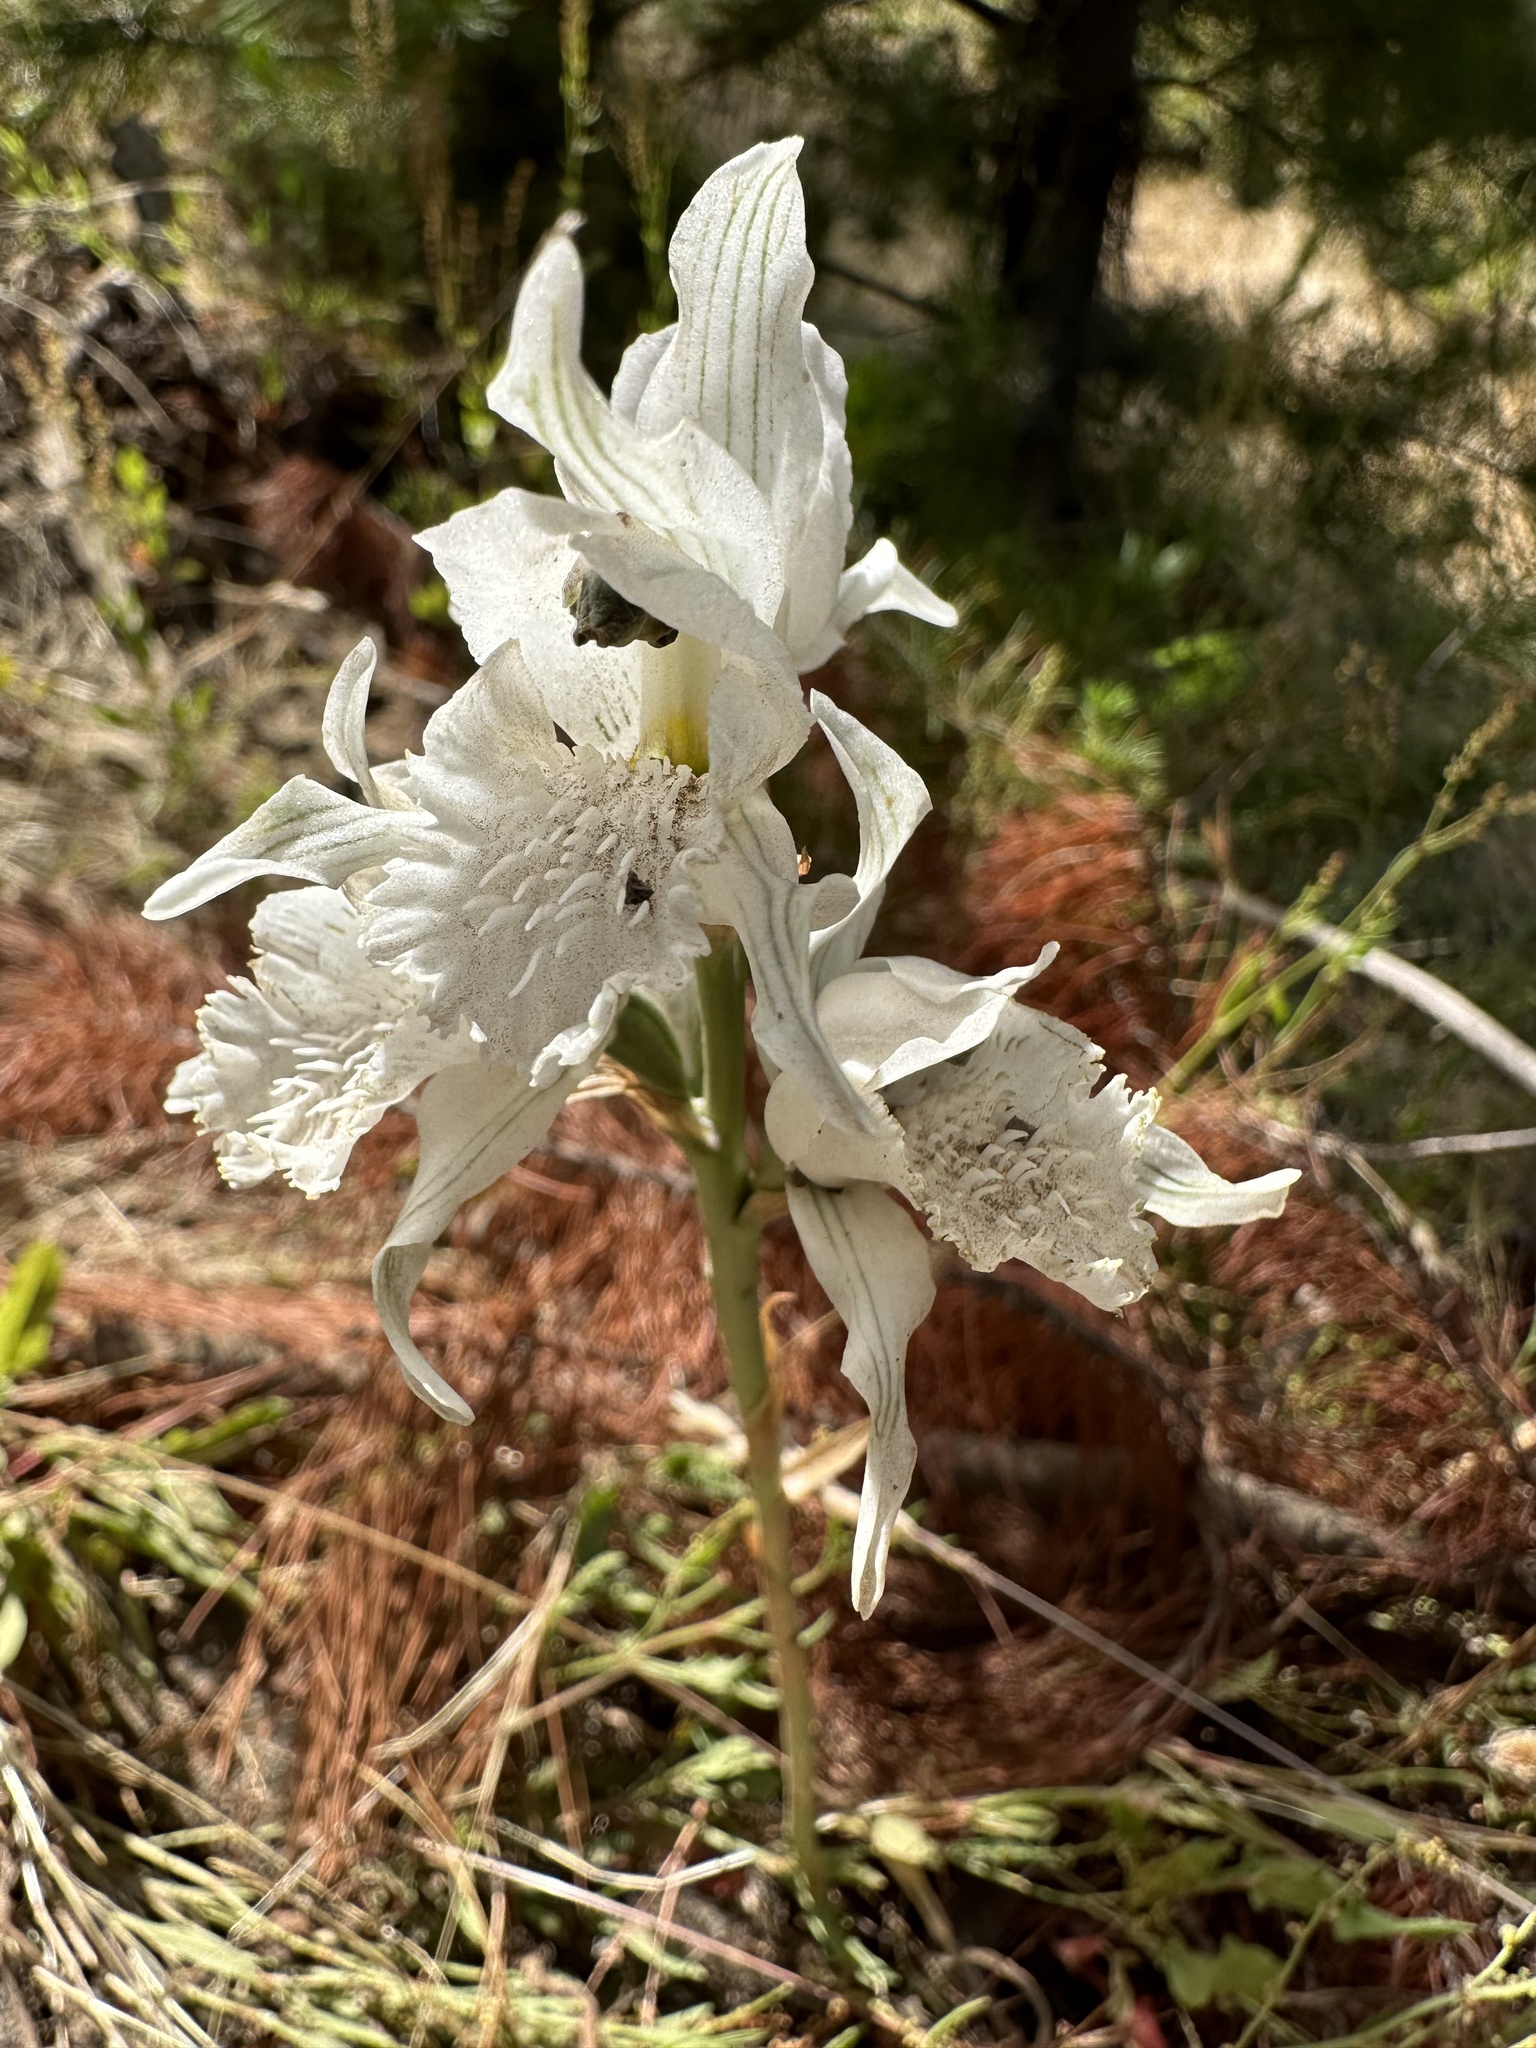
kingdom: Plantae
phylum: Tracheophyta
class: Liliopsida
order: Asparagales
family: Orchidaceae
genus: Chloraea
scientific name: Chloraea crispa
